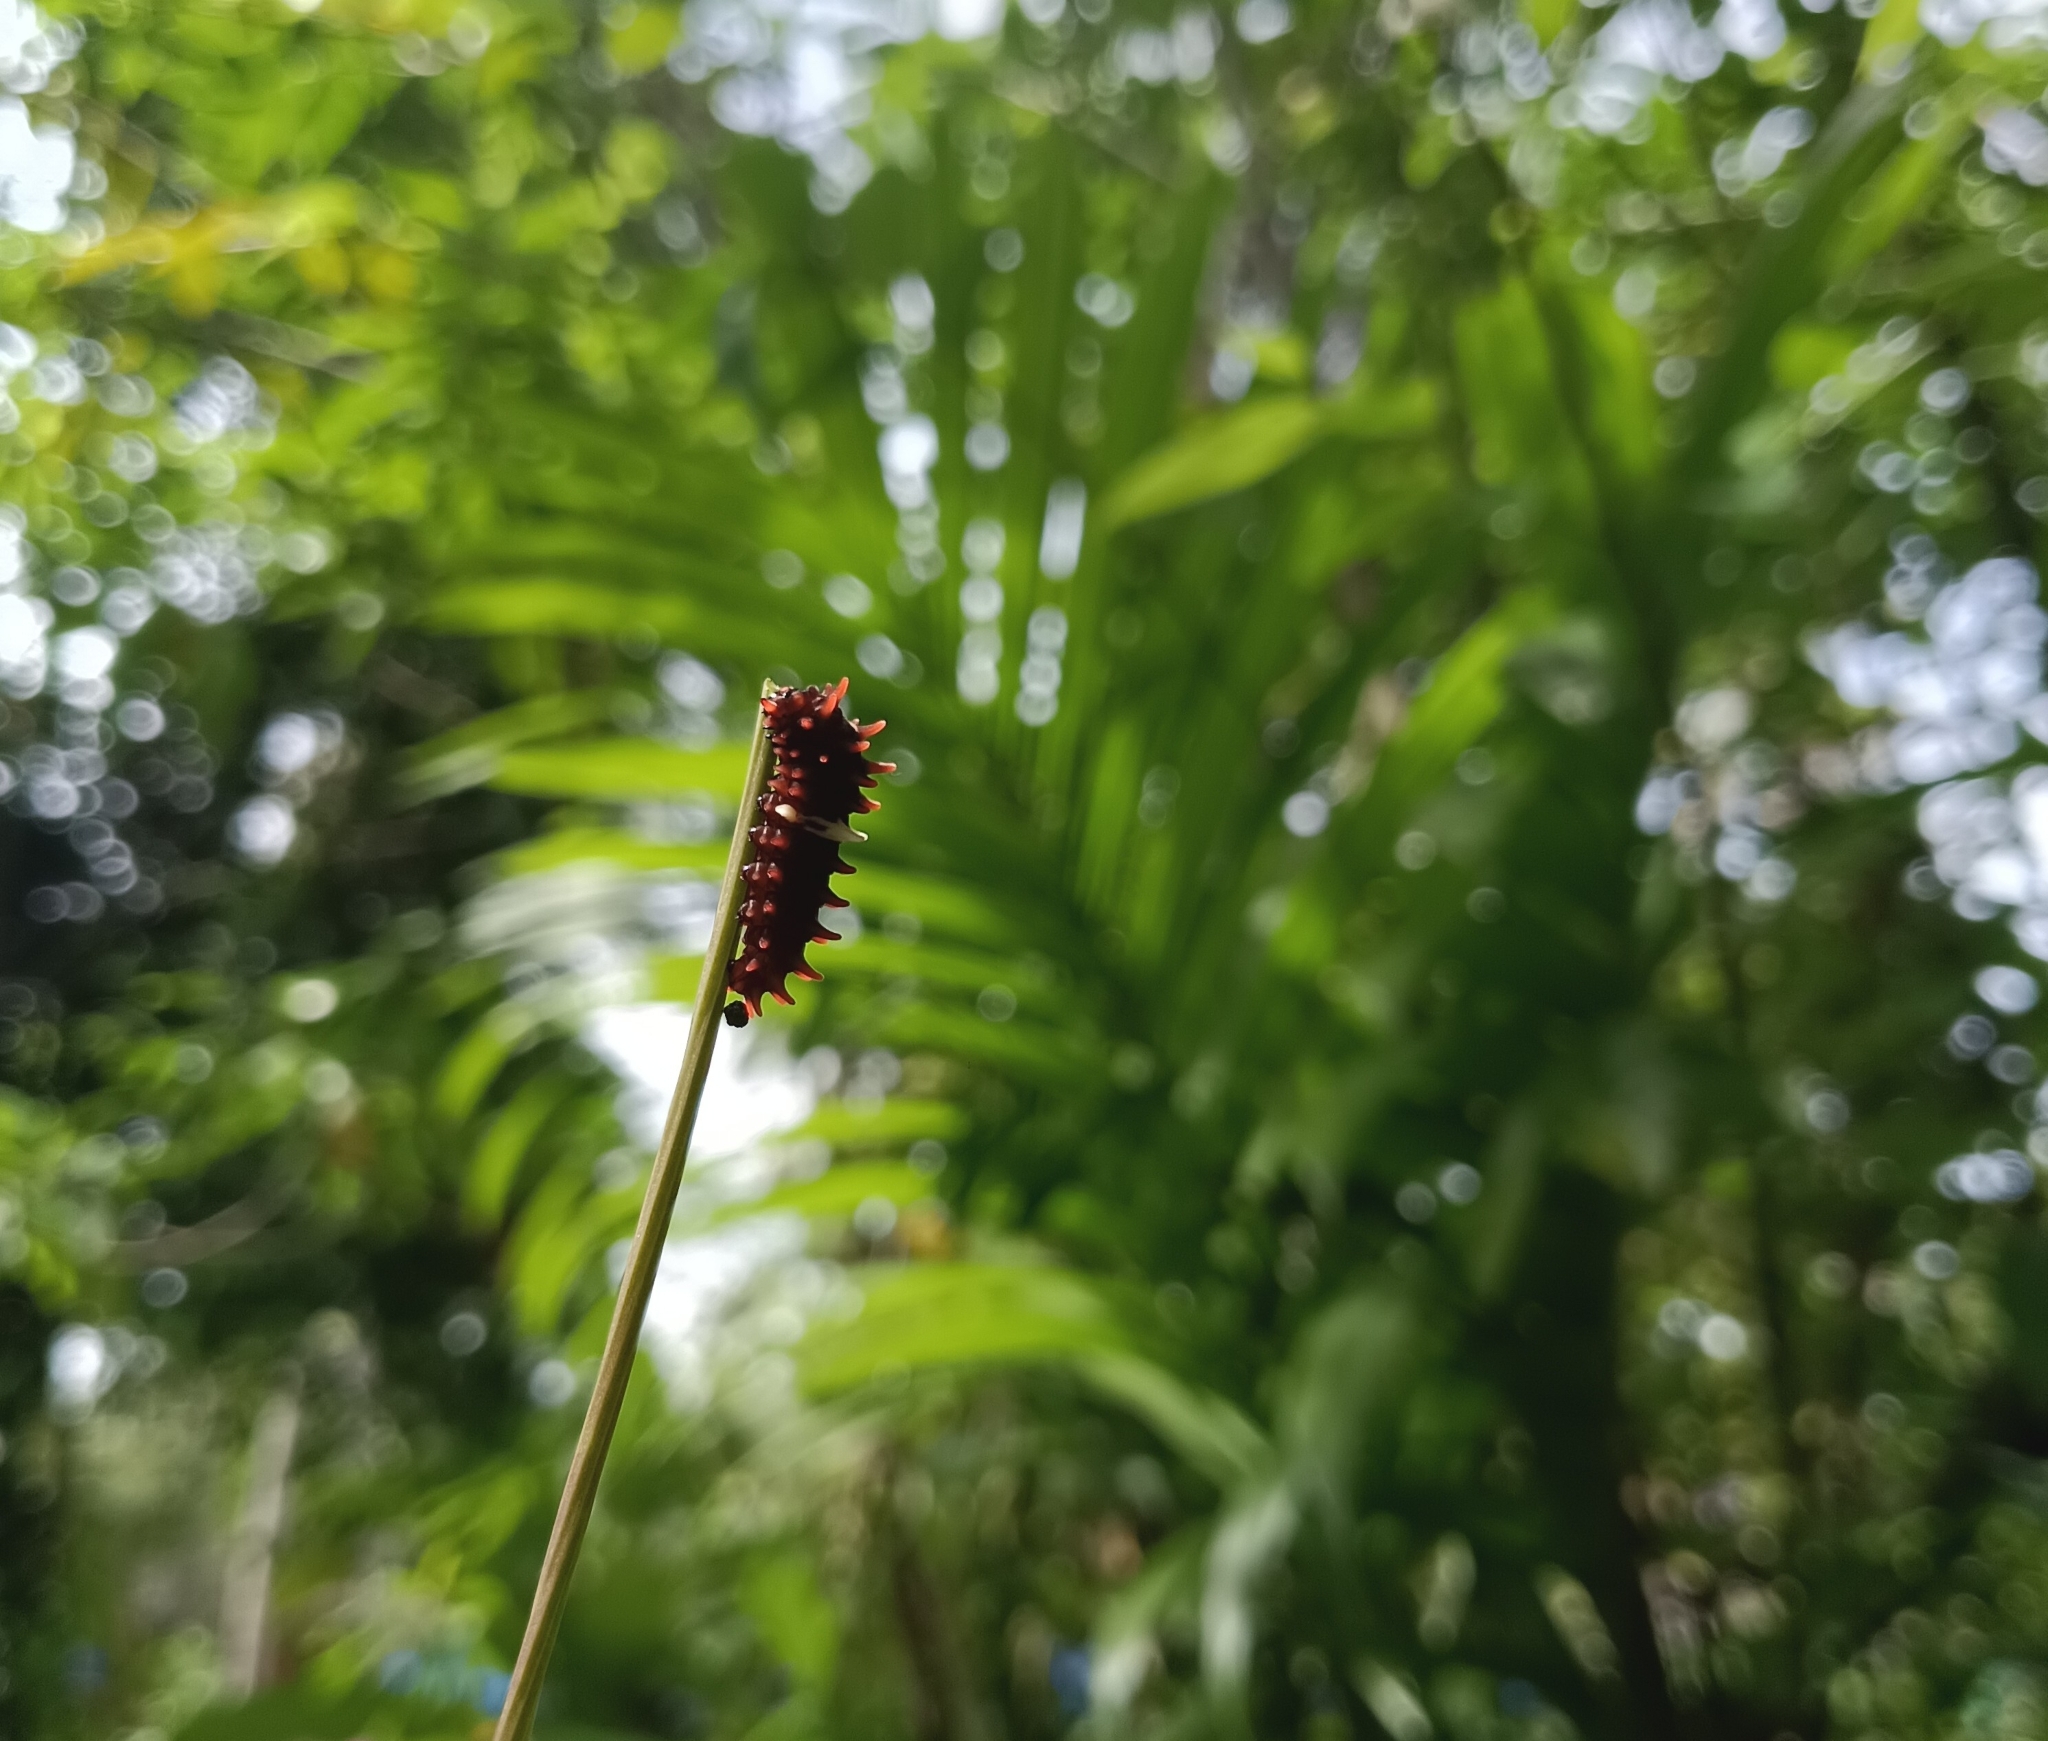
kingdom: Animalia
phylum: Arthropoda
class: Insecta
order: Lepidoptera
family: Papilionidae
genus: Pachliopta
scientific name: Pachliopta aristolochiae
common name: Common rose
